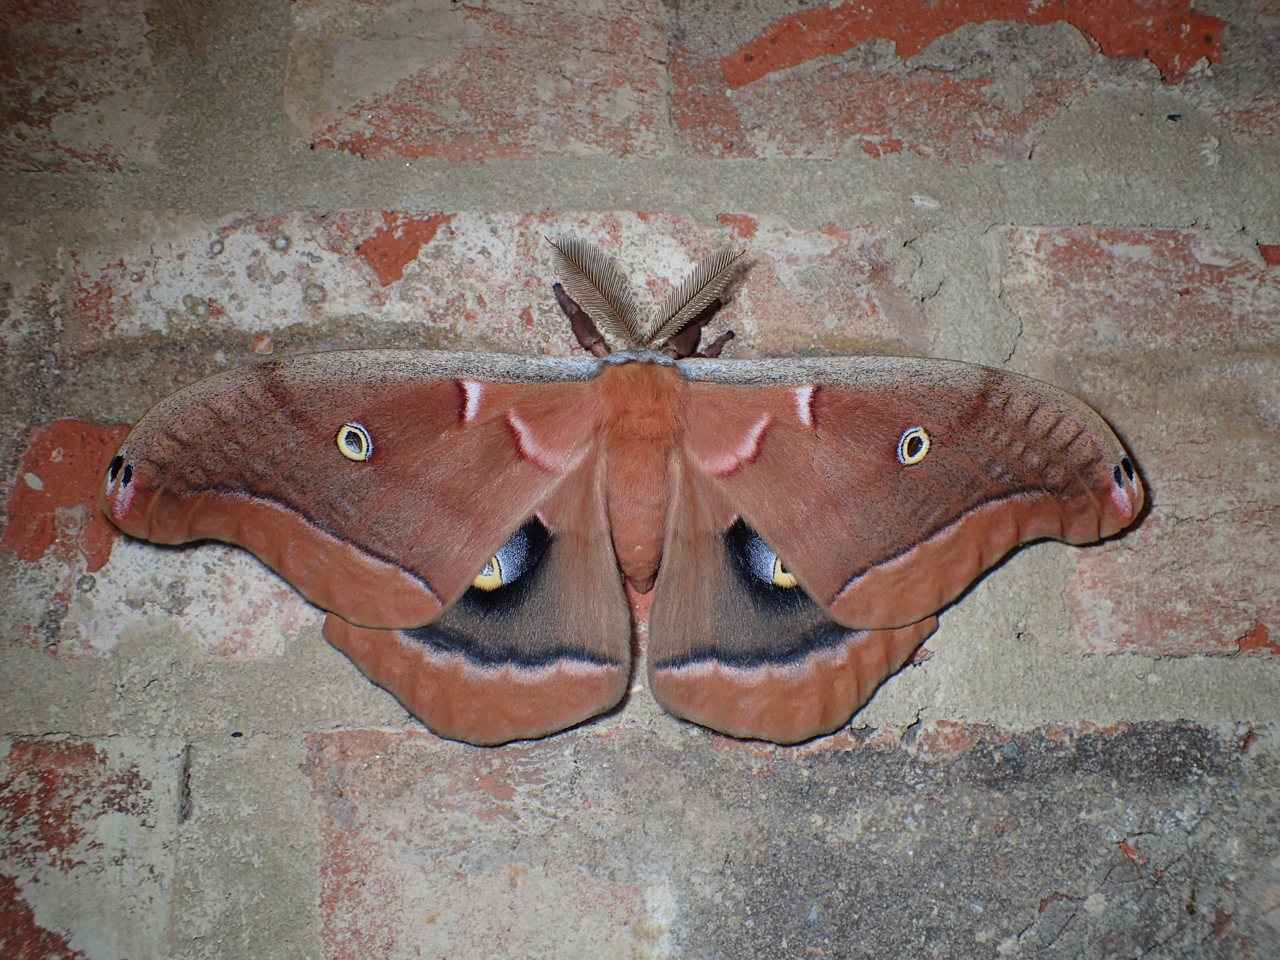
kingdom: Animalia
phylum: Arthropoda
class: Insecta
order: Lepidoptera
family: Saturniidae
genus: Antheraea
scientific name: Antheraea polyphemus
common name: Polyphemus moth
